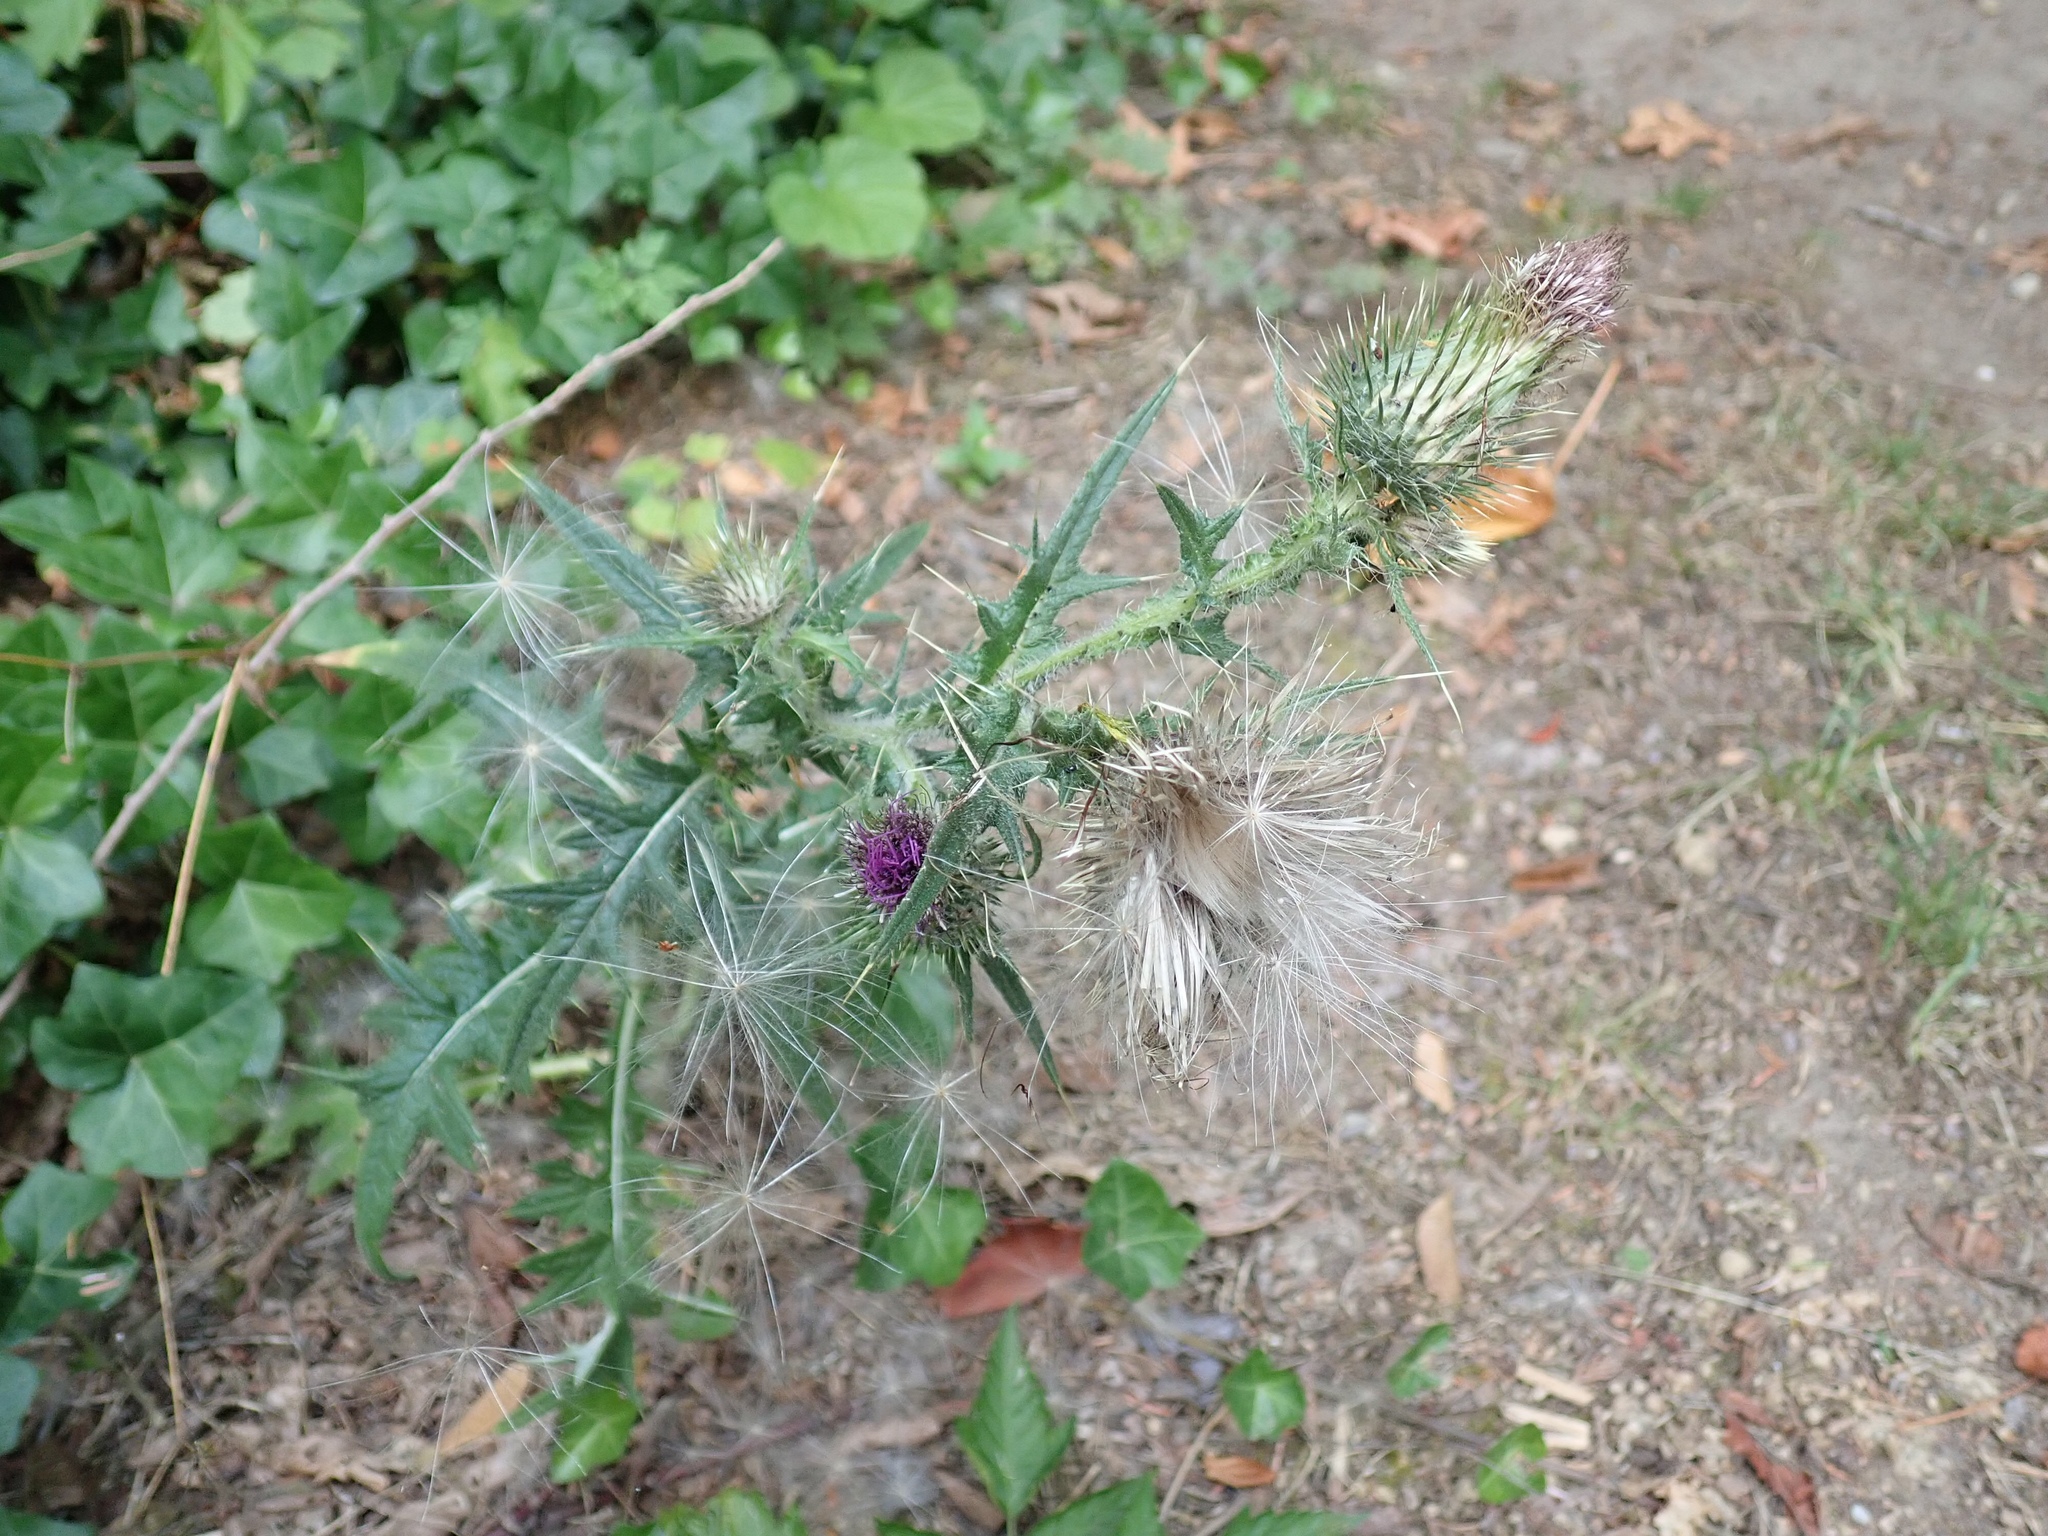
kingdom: Plantae
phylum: Tracheophyta
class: Magnoliopsida
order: Asterales
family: Asteraceae
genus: Cirsium
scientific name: Cirsium vulgare
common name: Bull thistle
